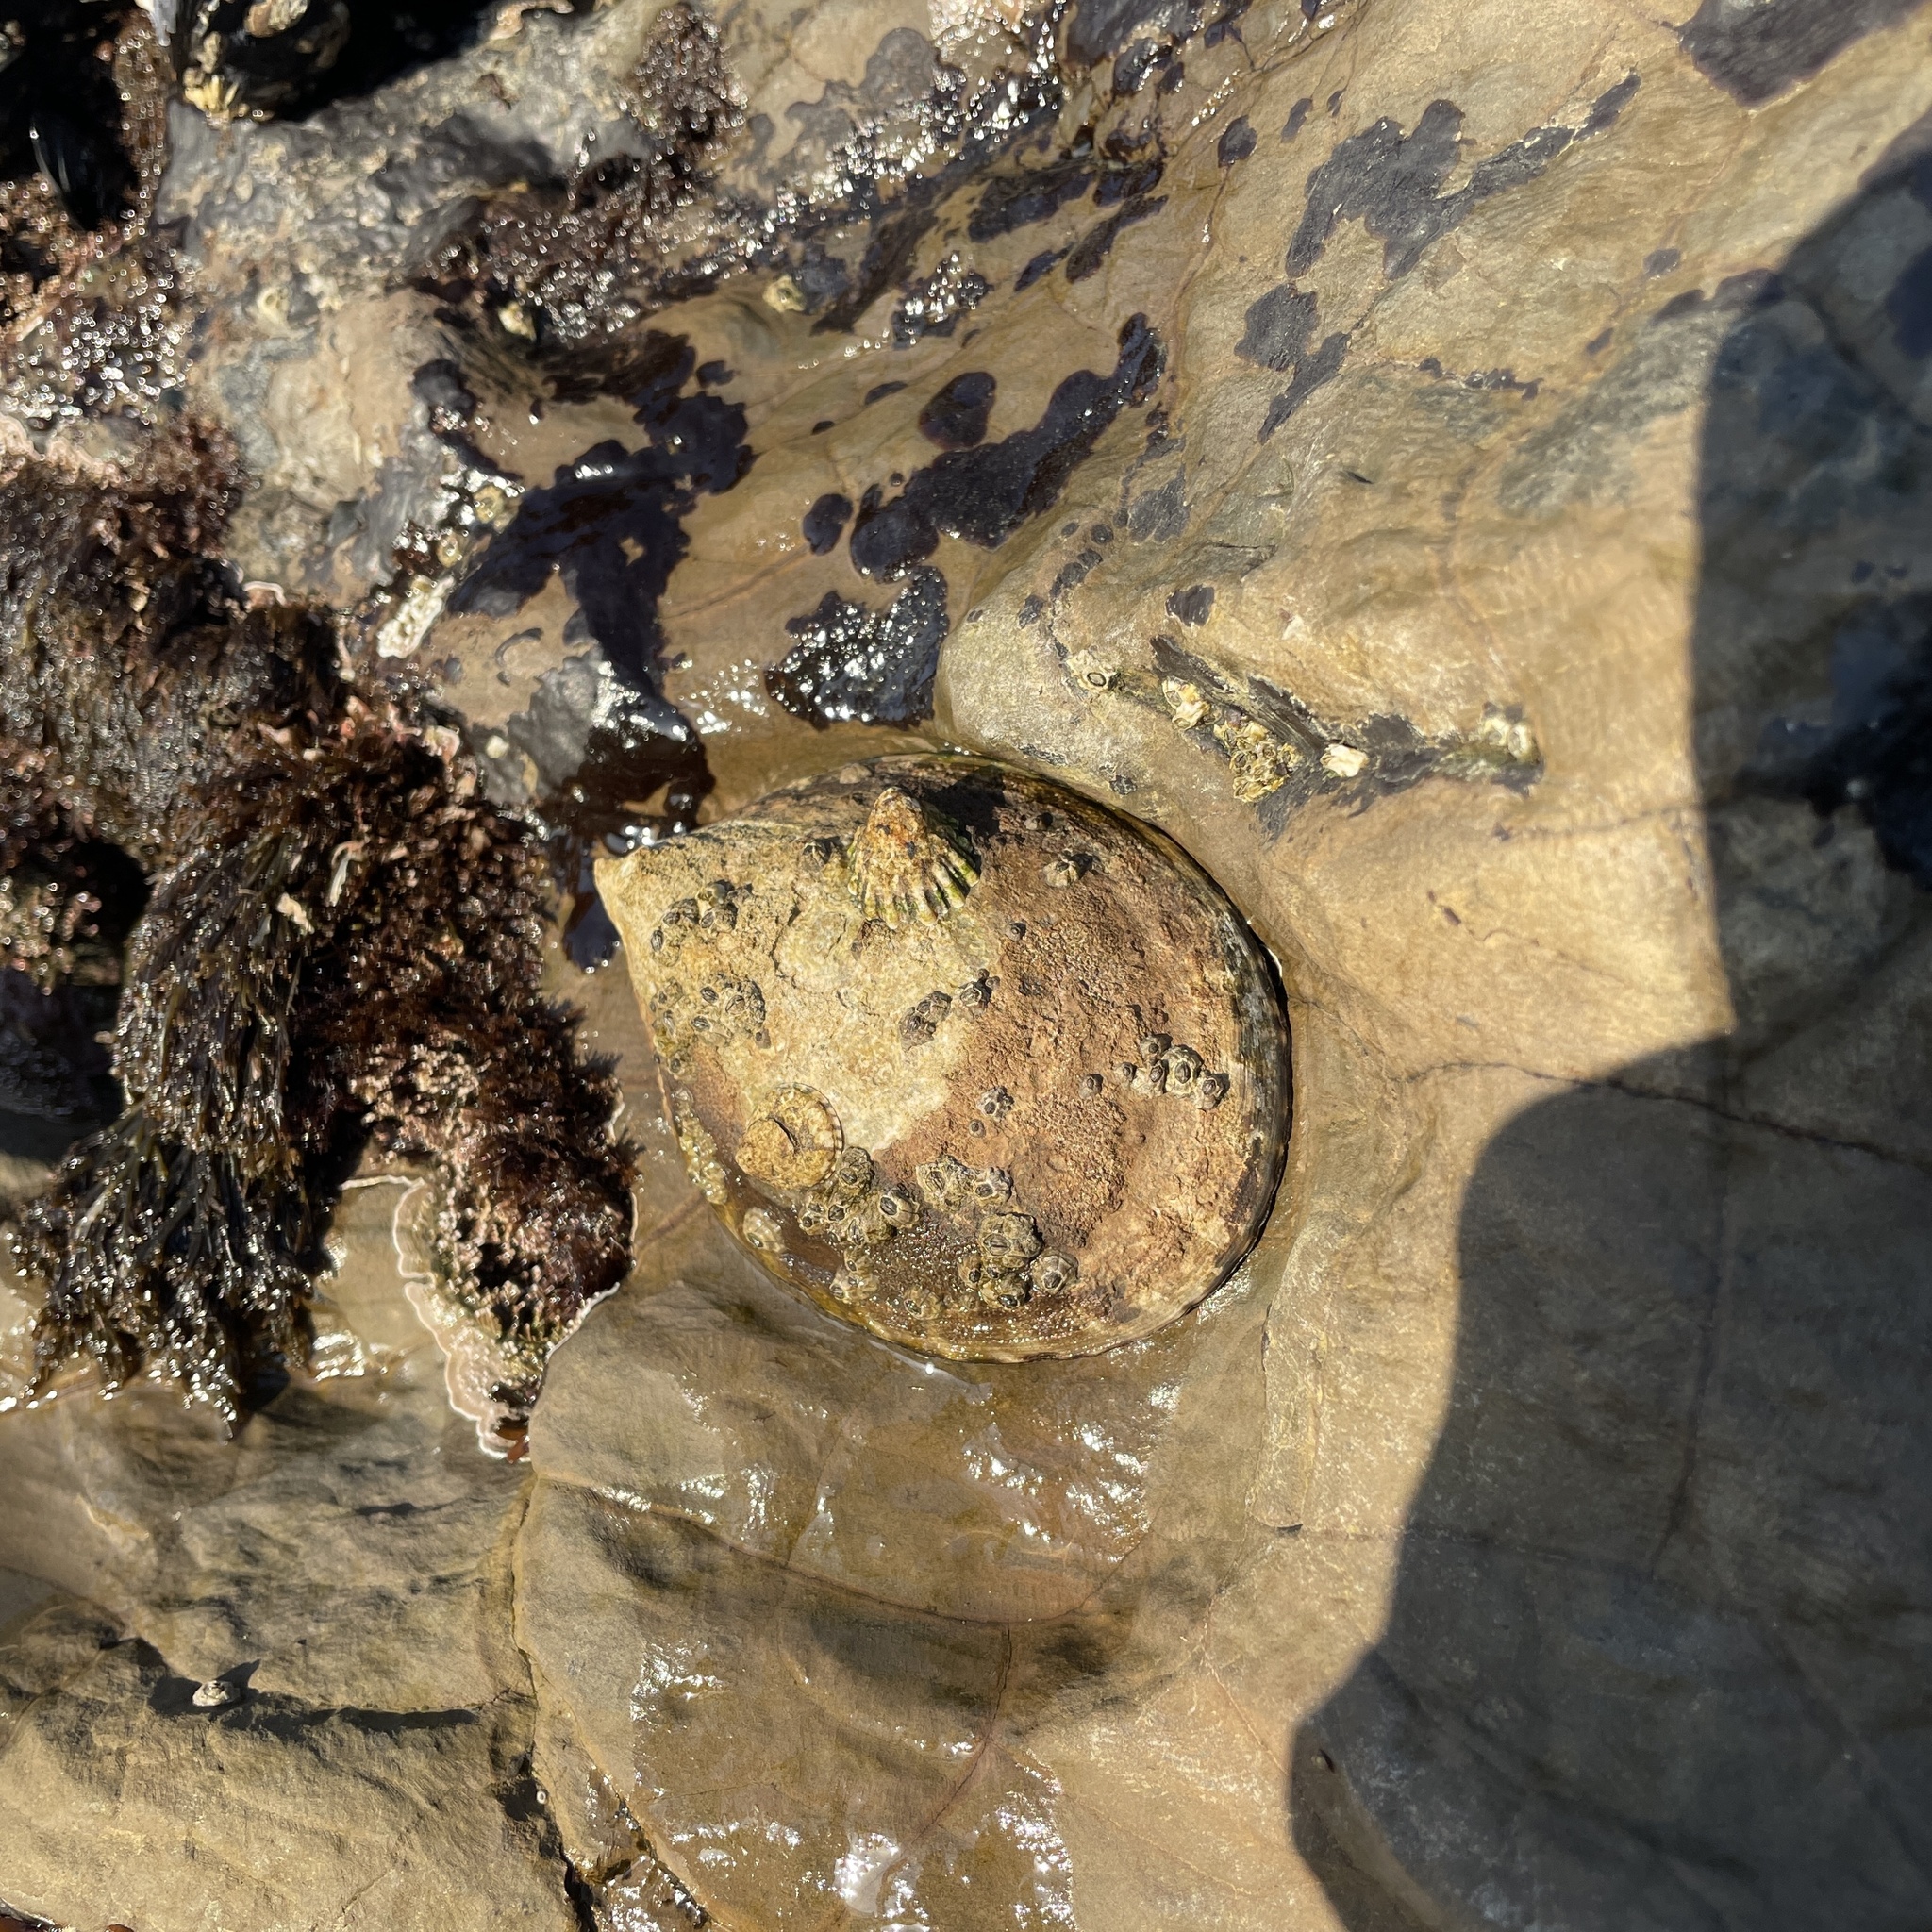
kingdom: Animalia
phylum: Mollusca
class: Gastropoda
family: Lottiidae
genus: Lottia
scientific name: Lottia gigantea
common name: Owl limpet
